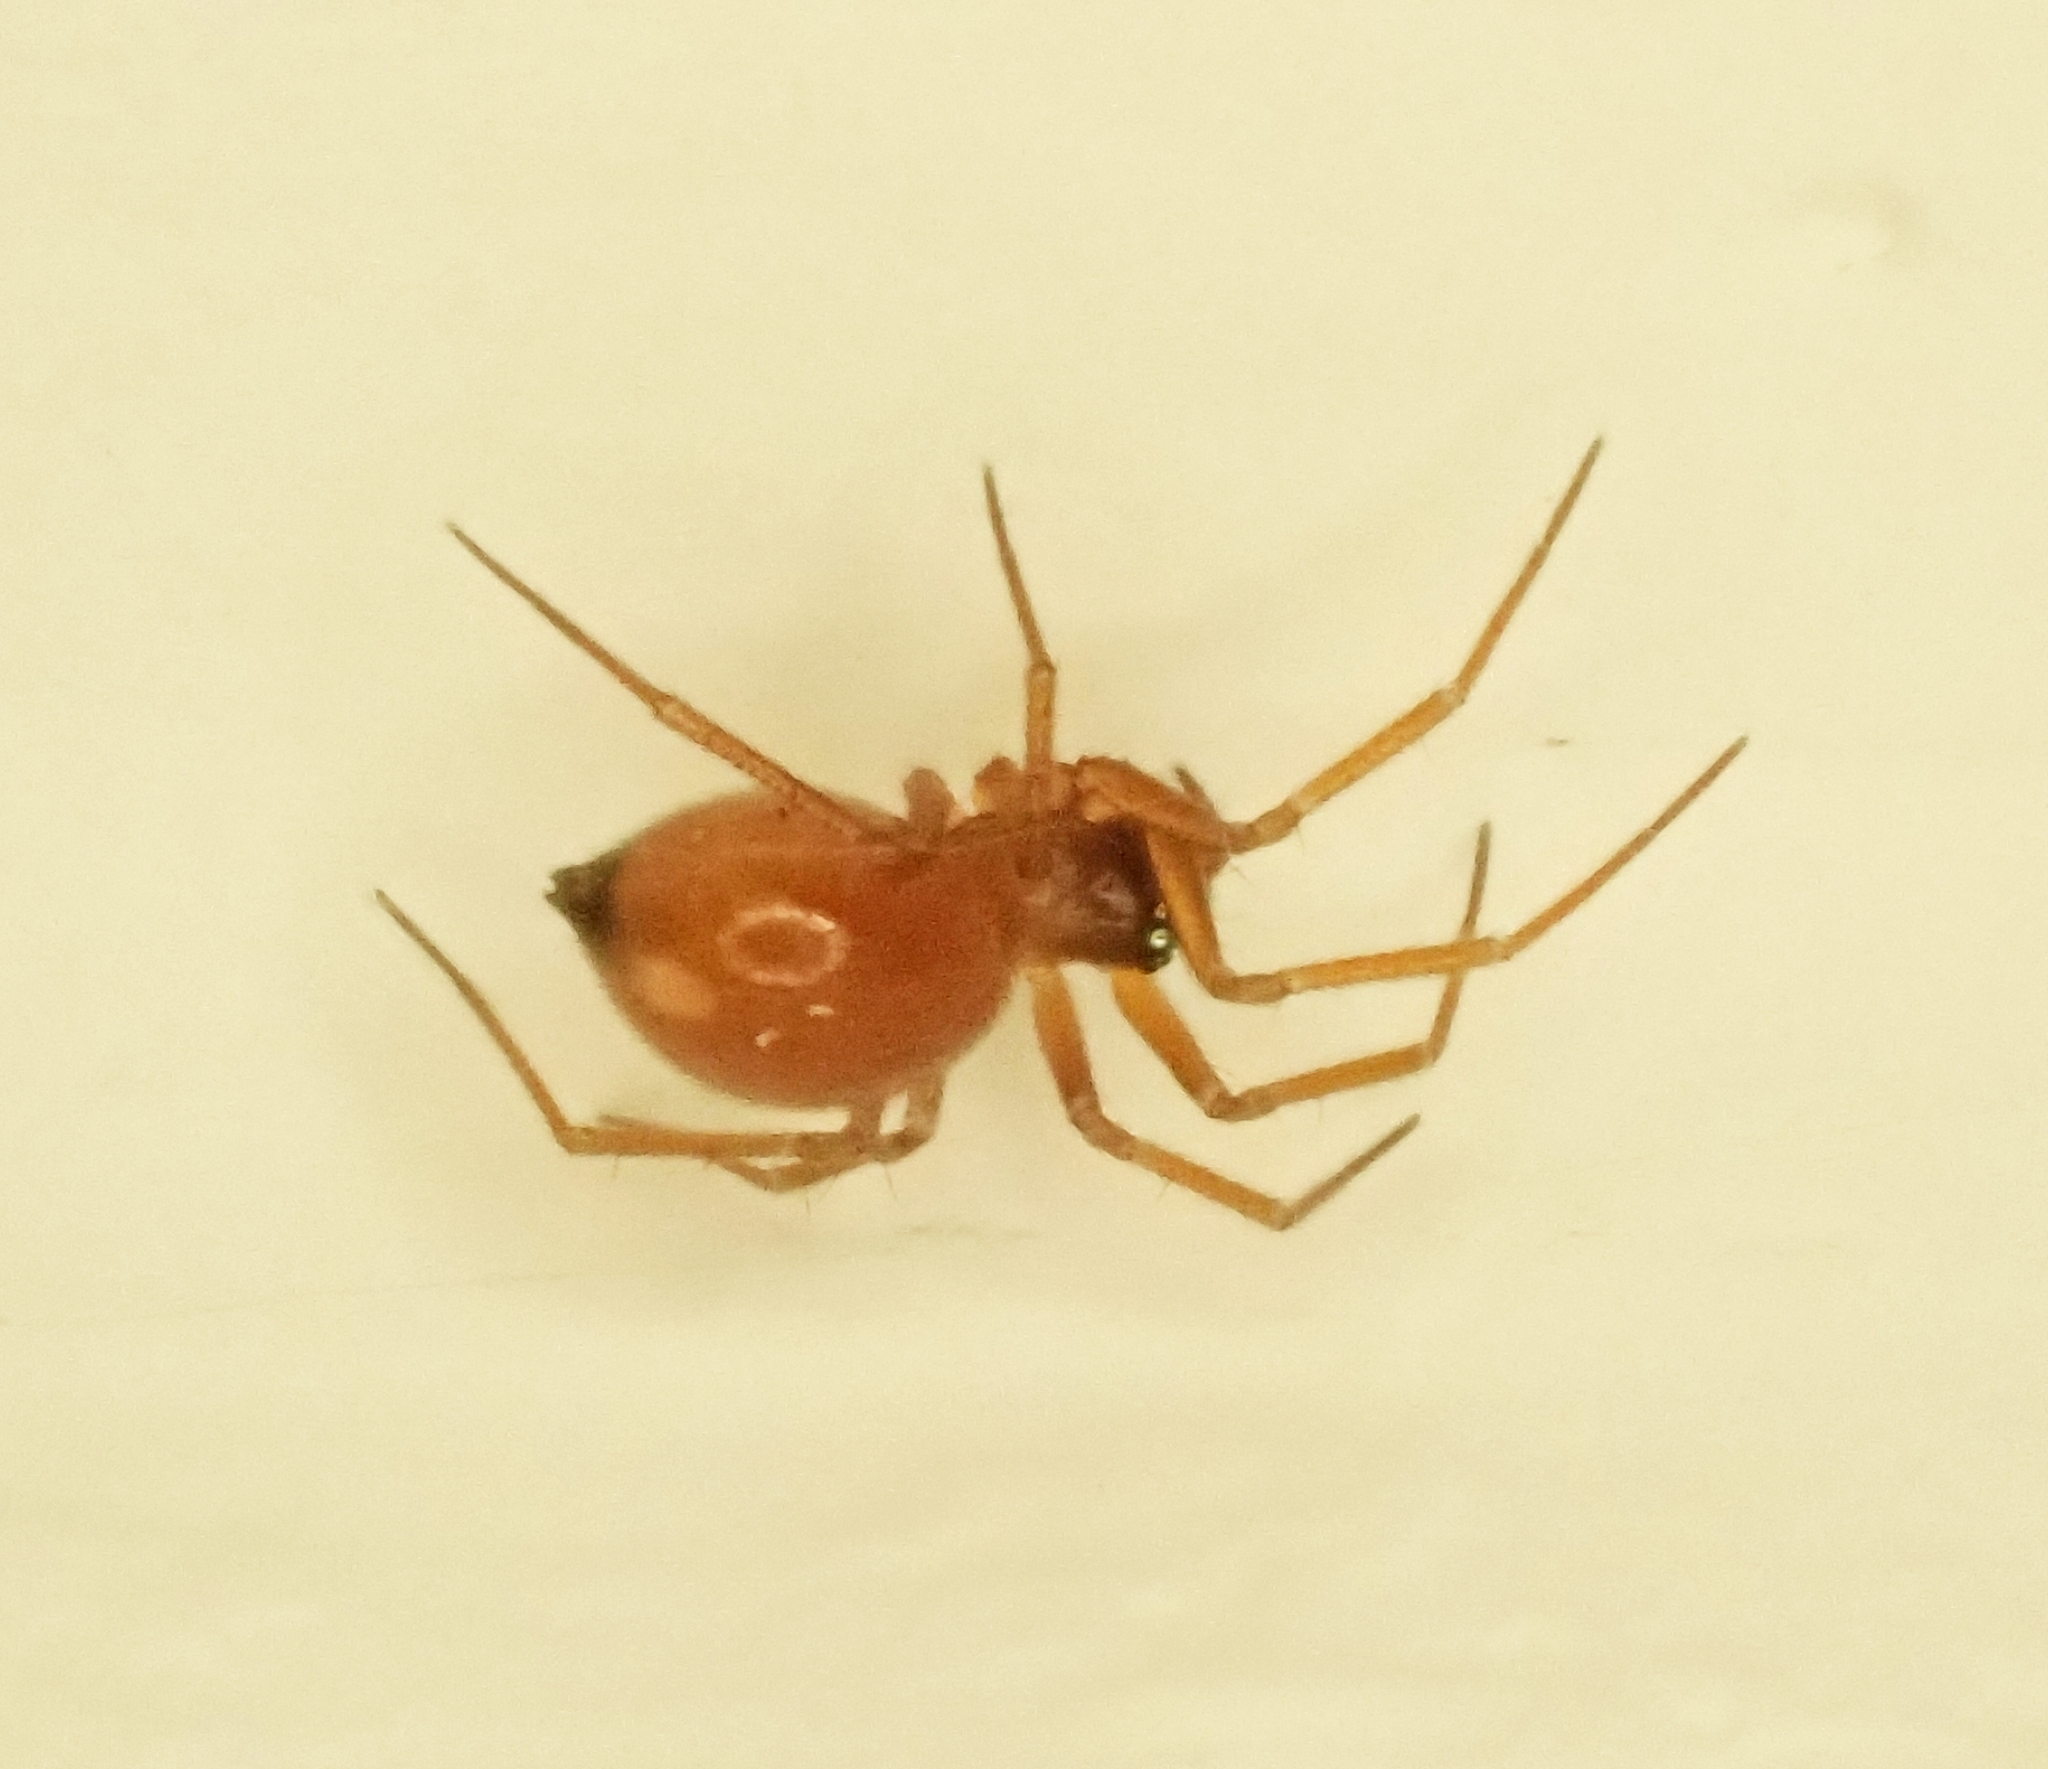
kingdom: Animalia
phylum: Arthropoda
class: Arachnida
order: Araneae
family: Linyphiidae
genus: Ostearius
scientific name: Ostearius melanopygius
